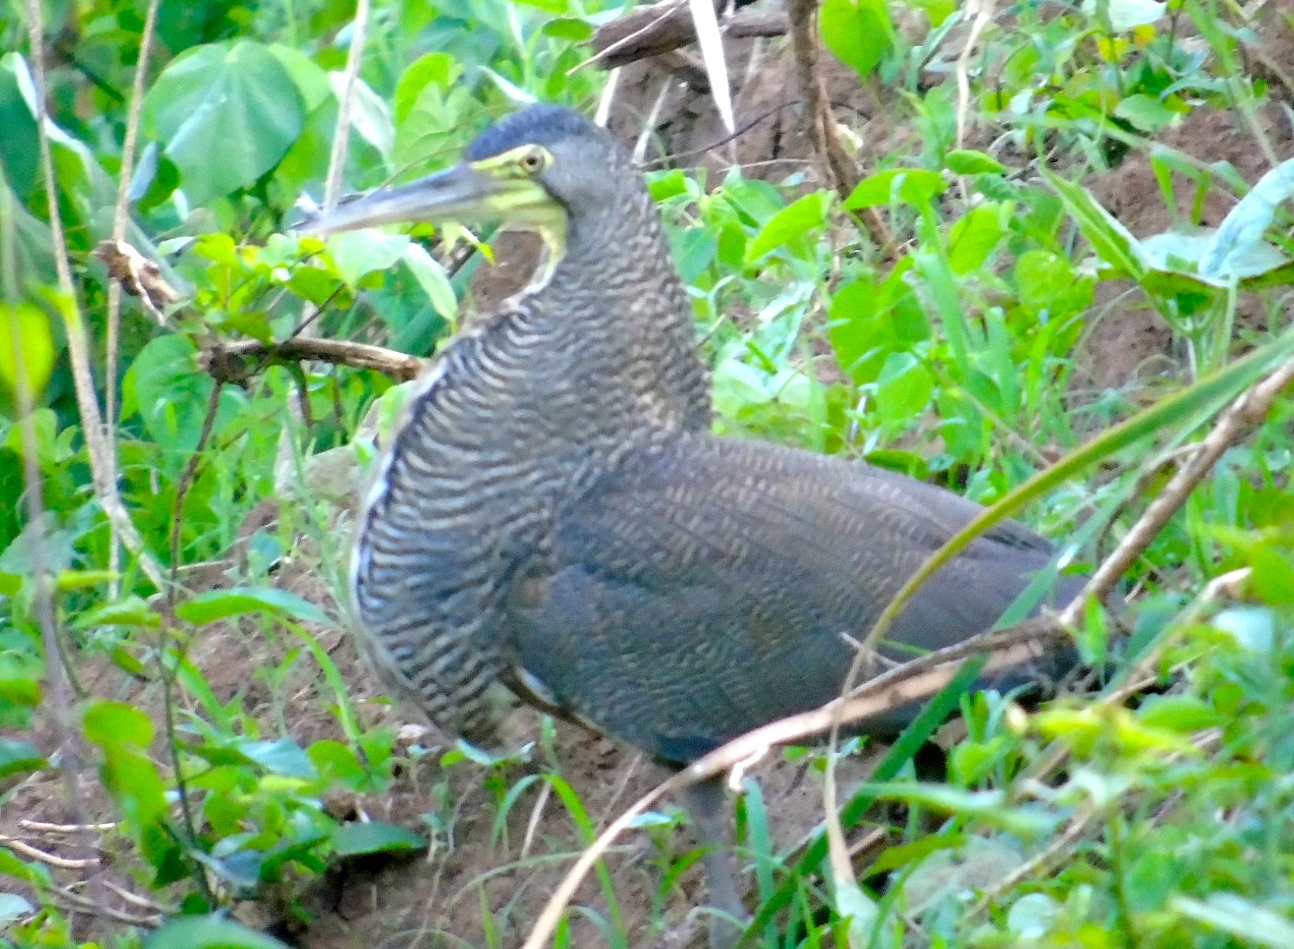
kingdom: Animalia
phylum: Chordata
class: Aves
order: Pelecaniformes
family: Ardeidae
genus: Tigrisoma
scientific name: Tigrisoma mexicanum
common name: Bare-throated tiger-heron
